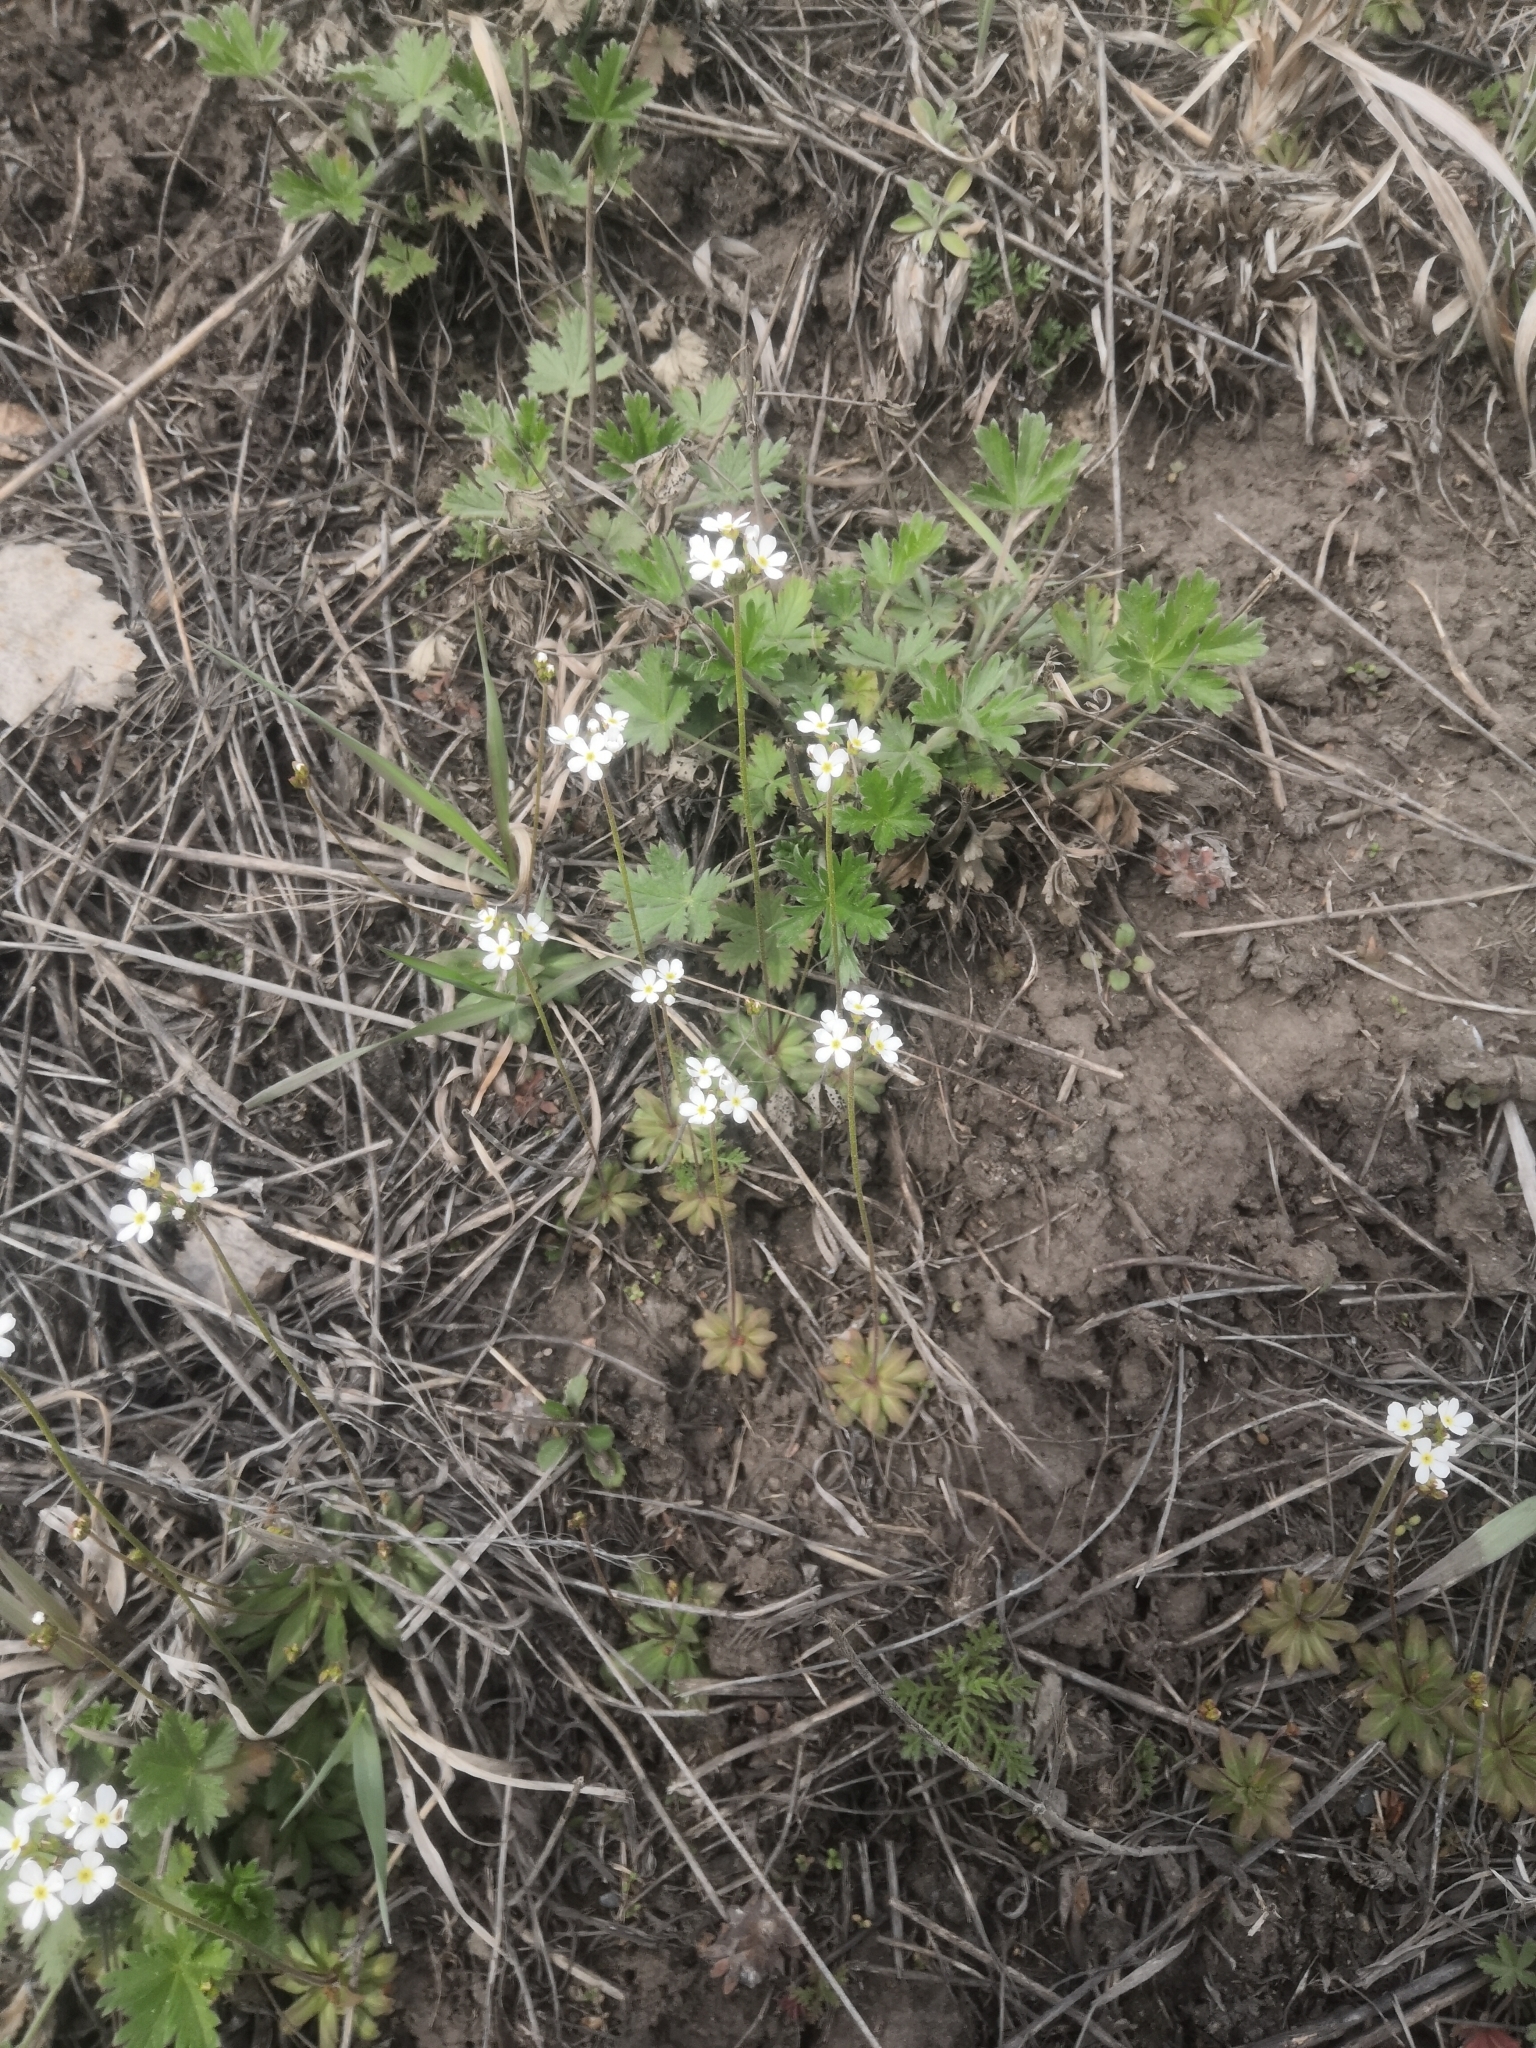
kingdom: Plantae
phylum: Tracheophyta
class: Magnoliopsida
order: Ericales
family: Primulaceae
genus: Androsace
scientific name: Androsace lactiflora
